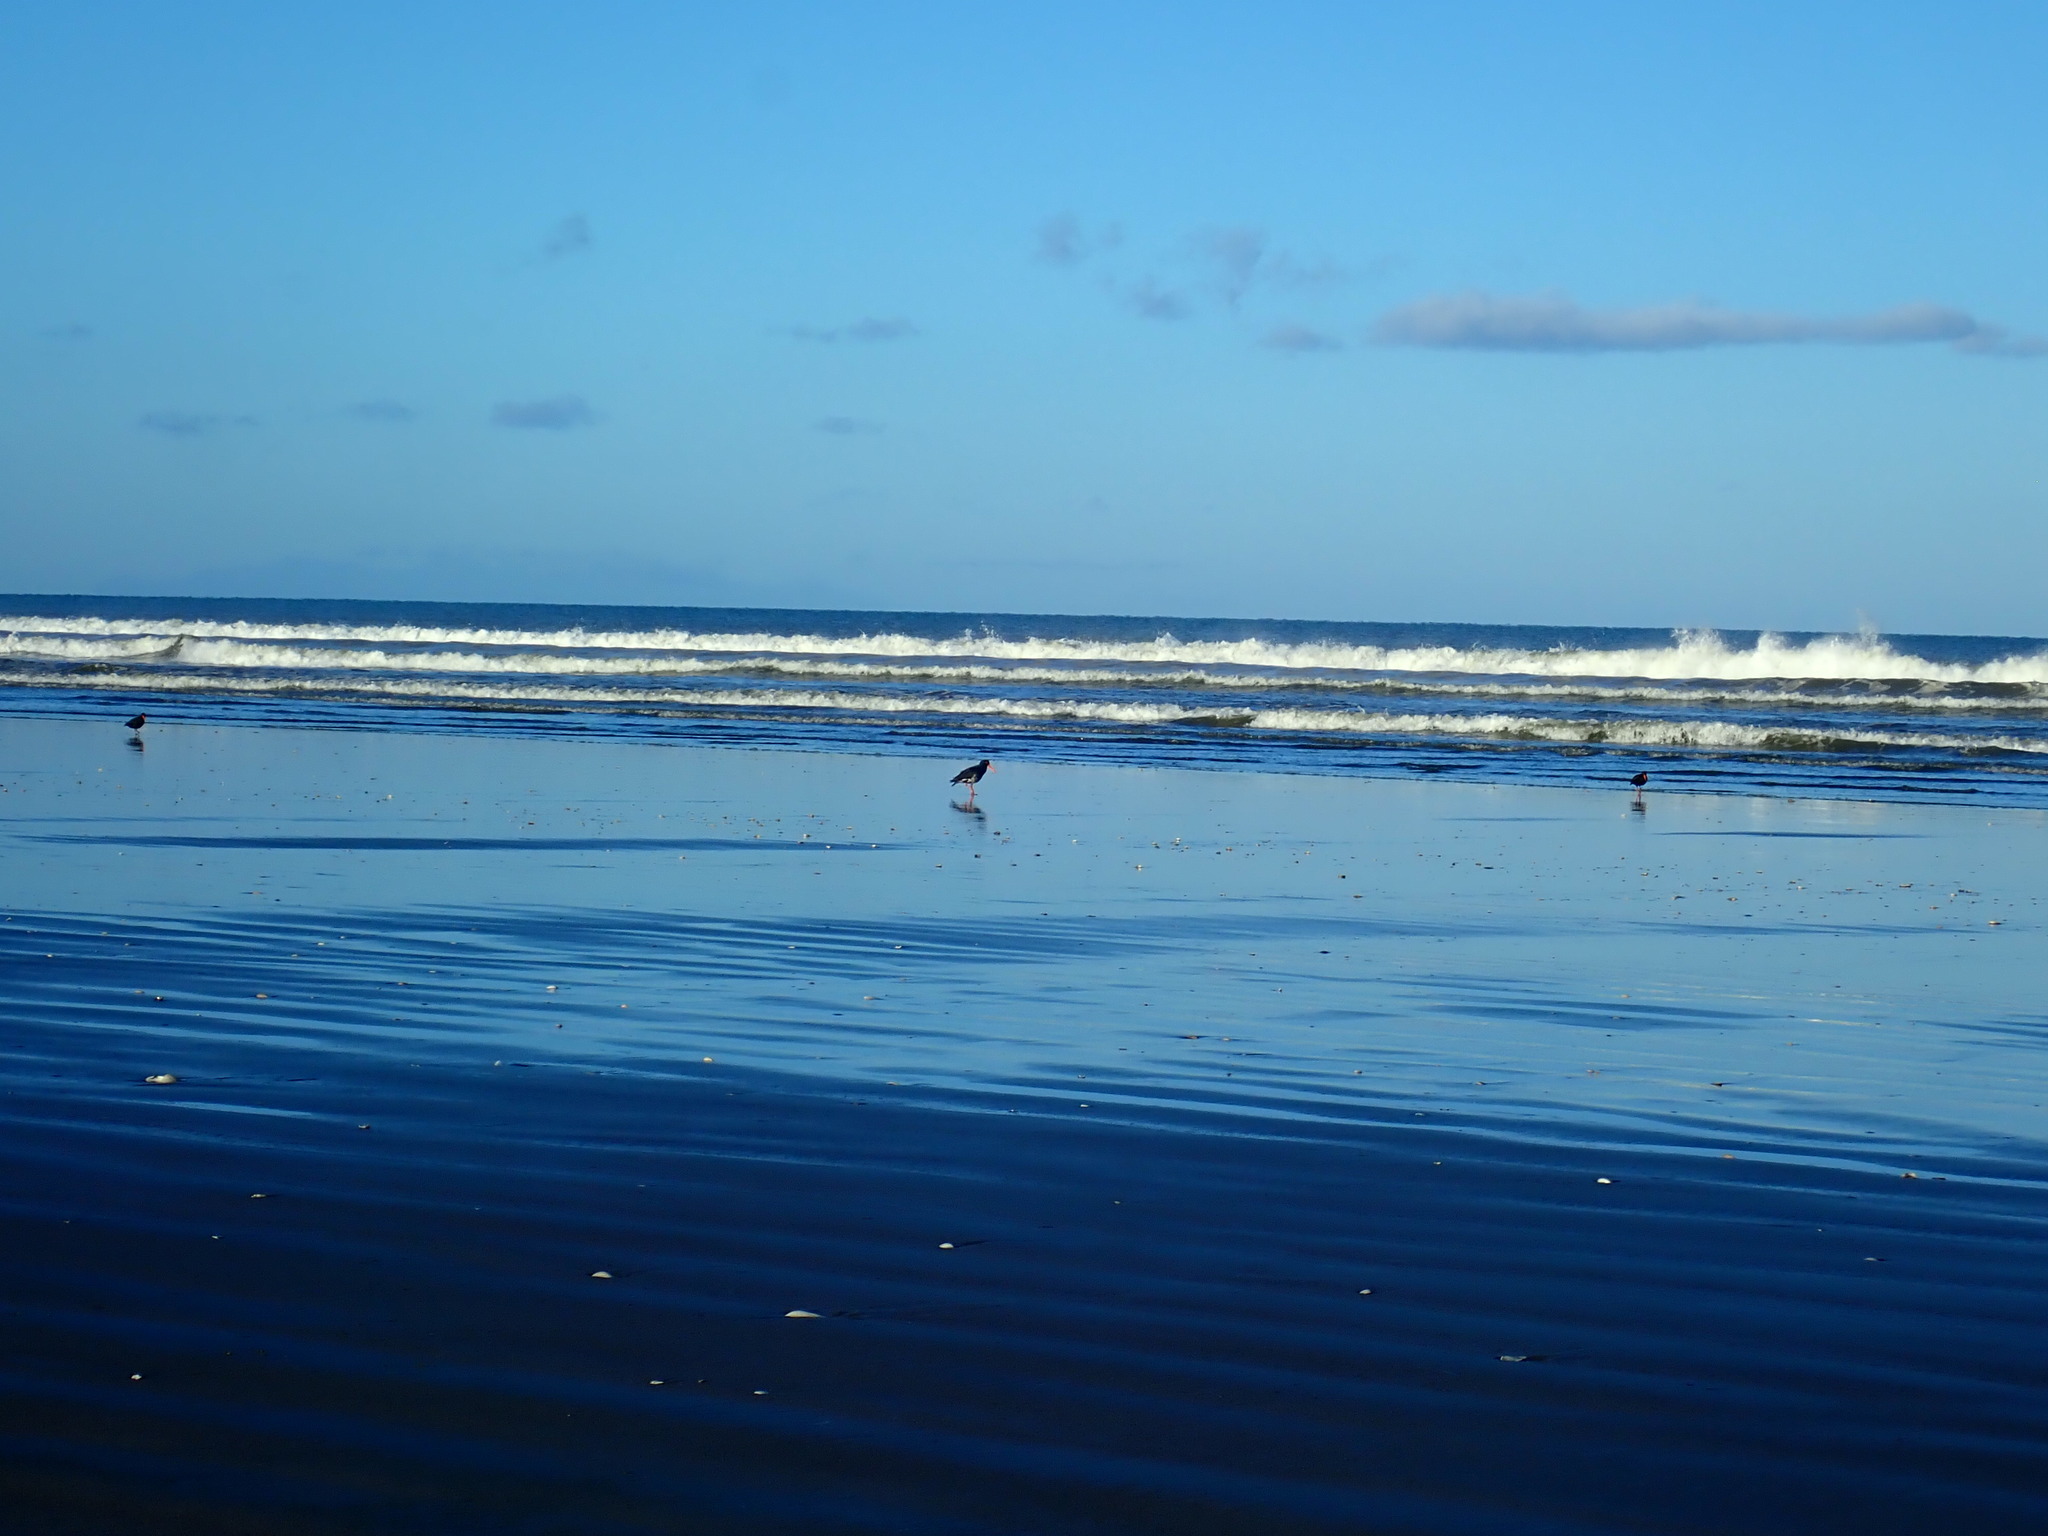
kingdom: Animalia
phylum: Chordata
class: Aves
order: Charadriiformes
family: Haematopodidae
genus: Haematopus
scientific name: Haematopus unicolor
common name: Variable oystercatcher
